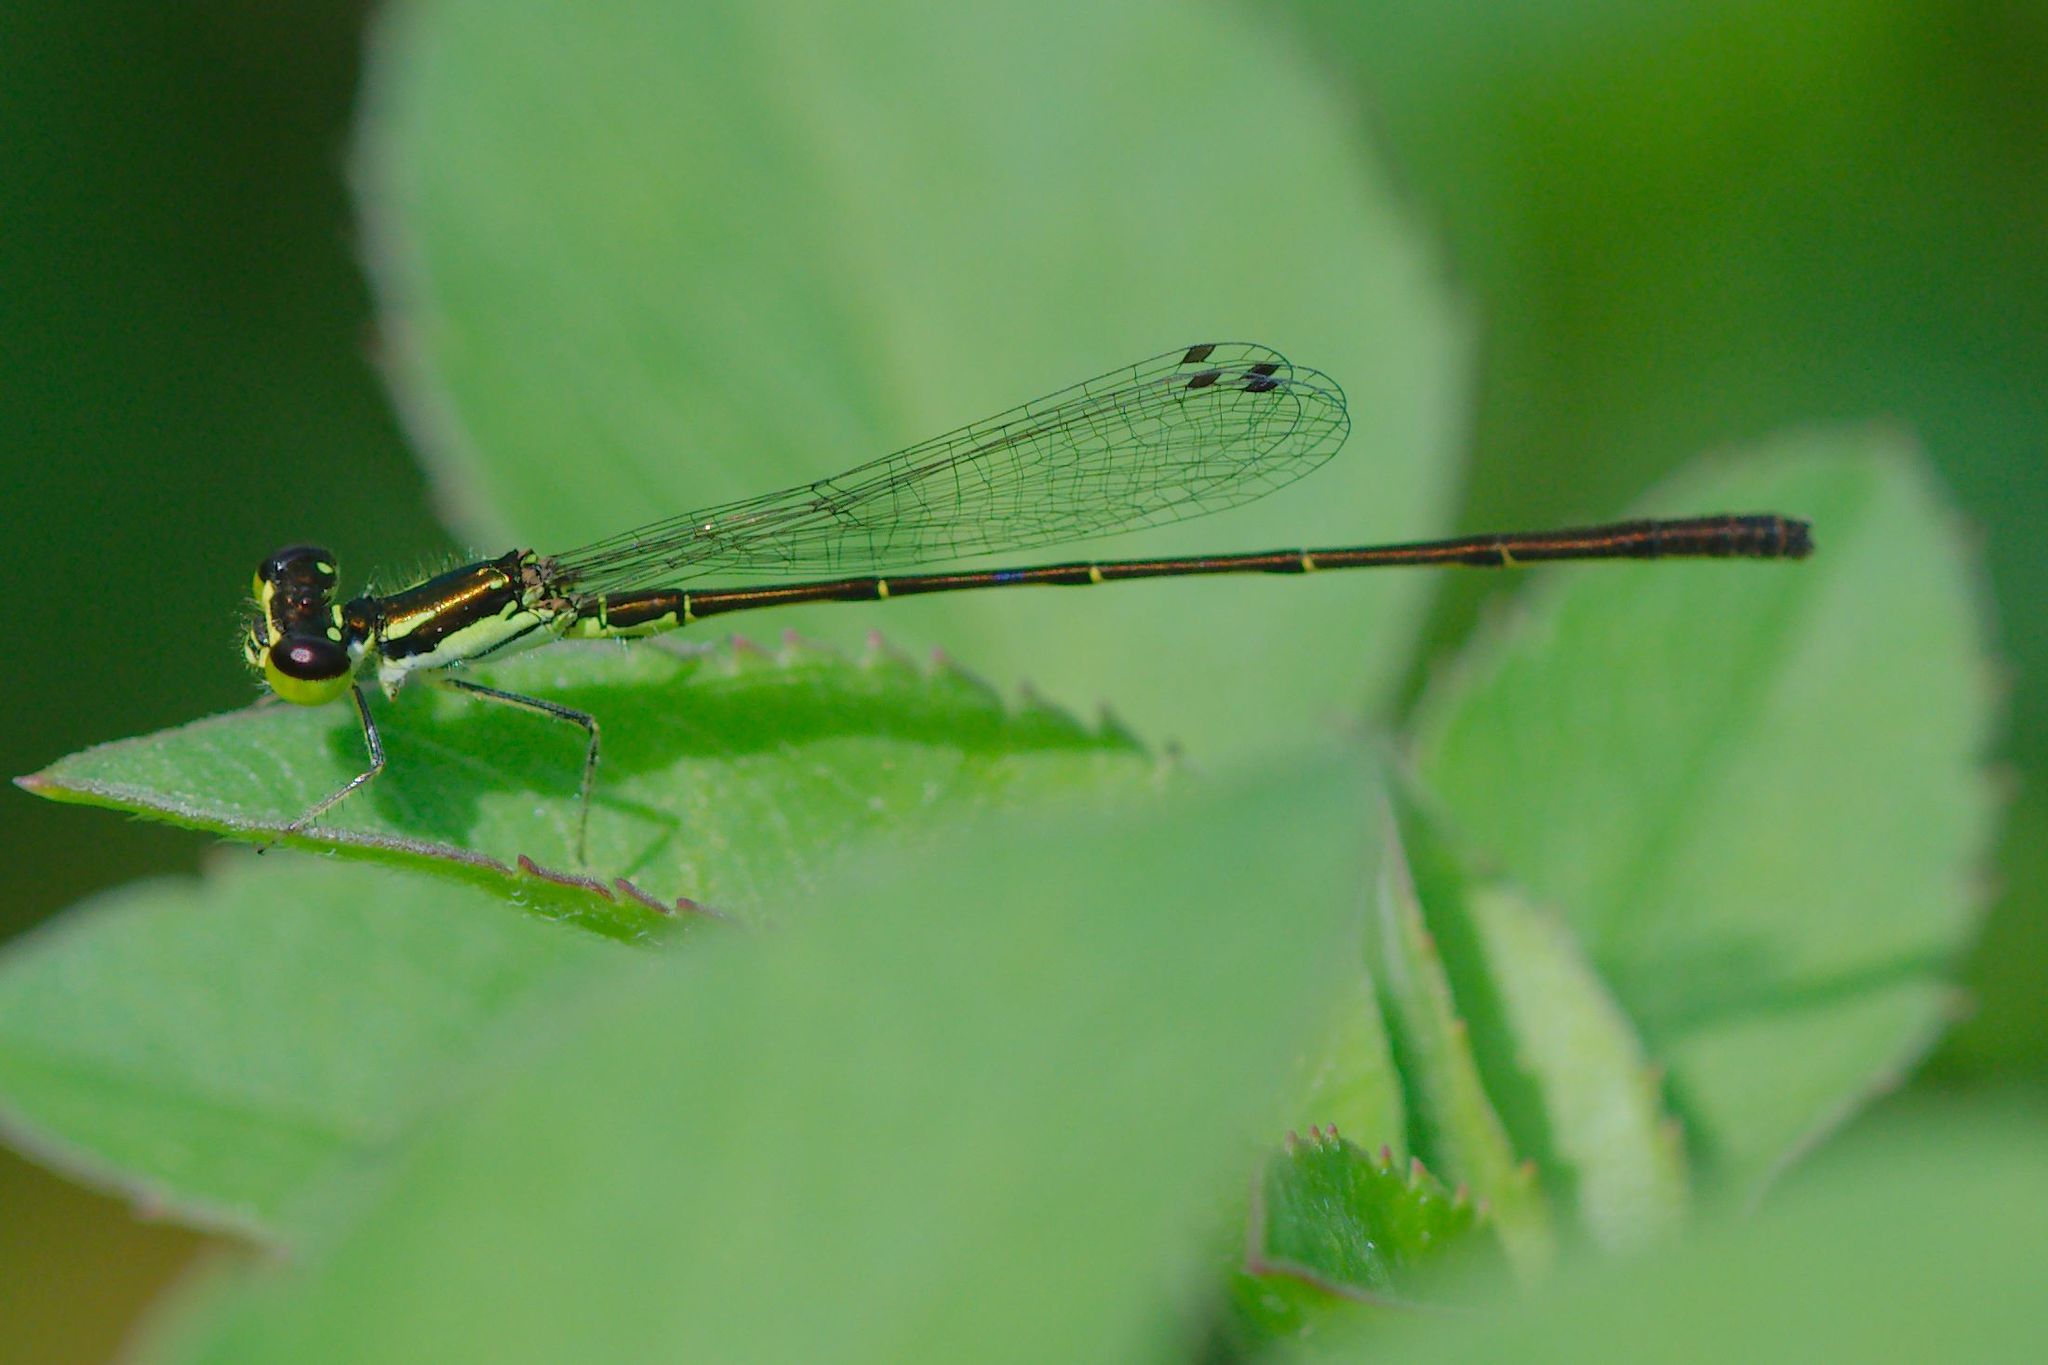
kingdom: Animalia
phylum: Arthropoda
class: Insecta
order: Odonata
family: Coenagrionidae
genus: Ischnura
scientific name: Ischnura posita
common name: Fragile forktail
